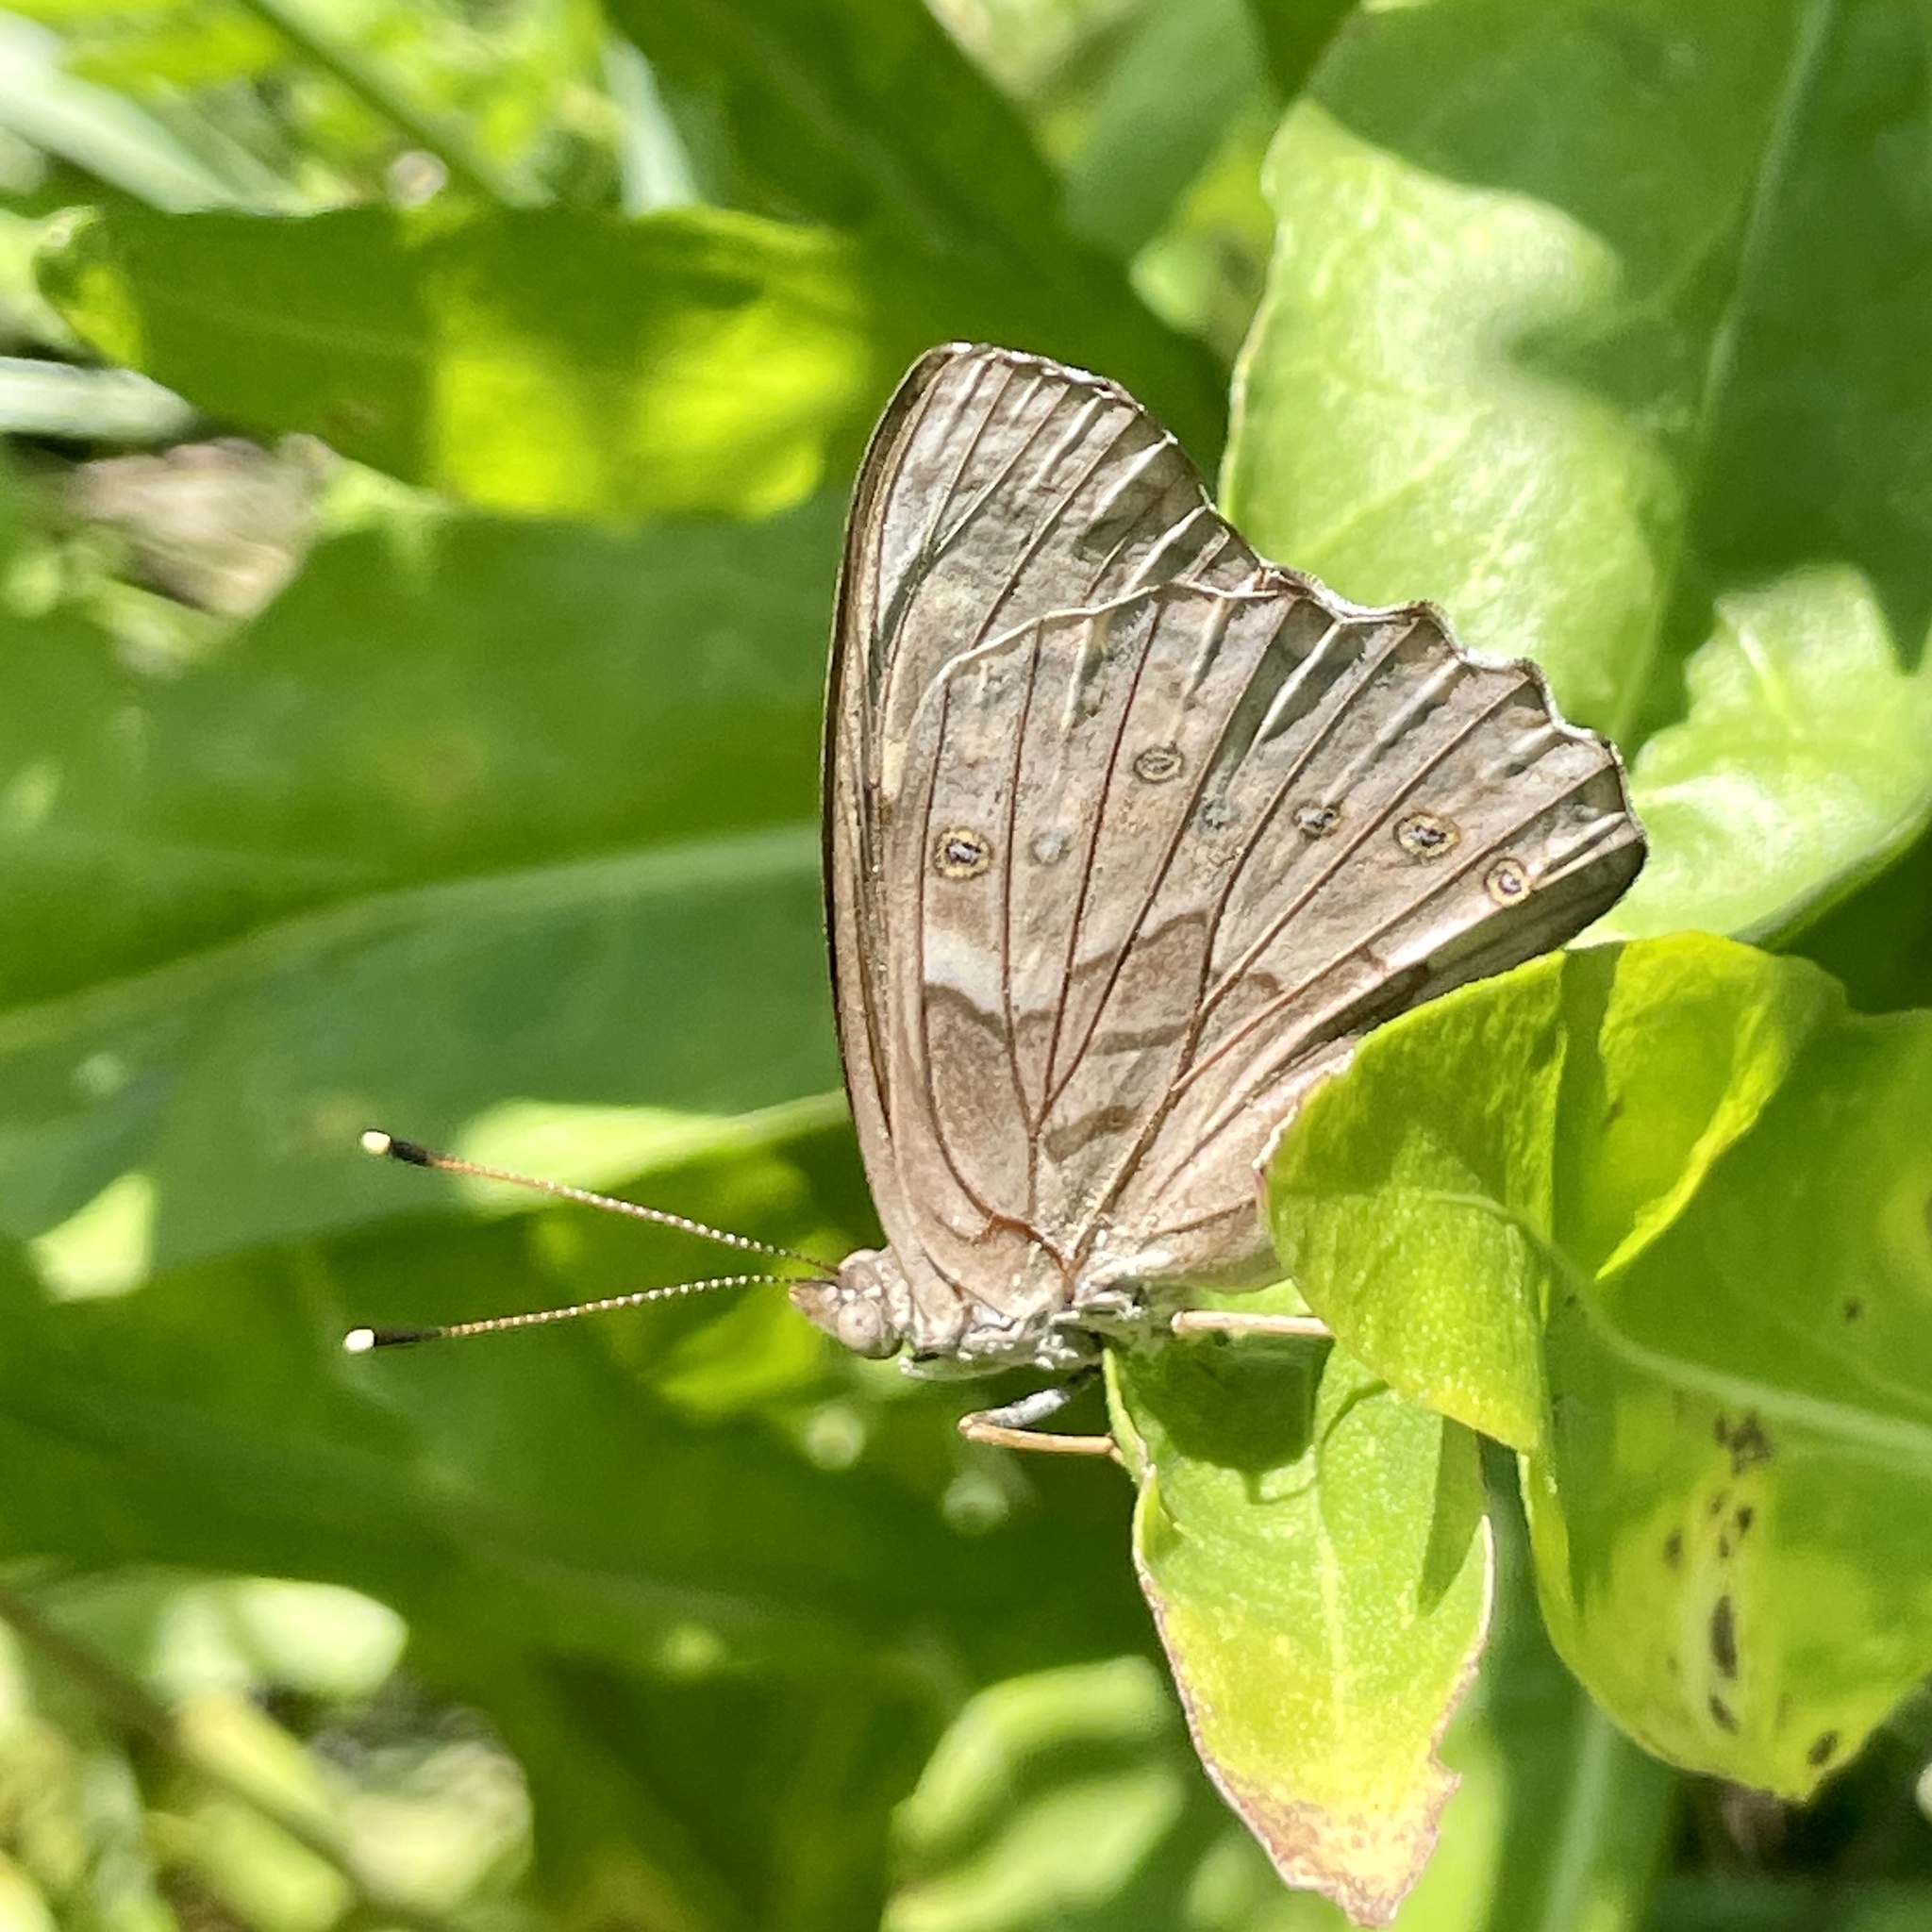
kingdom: Animalia
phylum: Arthropoda
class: Insecta
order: Lepidoptera
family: Nymphalidae
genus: Asterocampa
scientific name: Asterocampa clyton
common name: Tawny emperor
